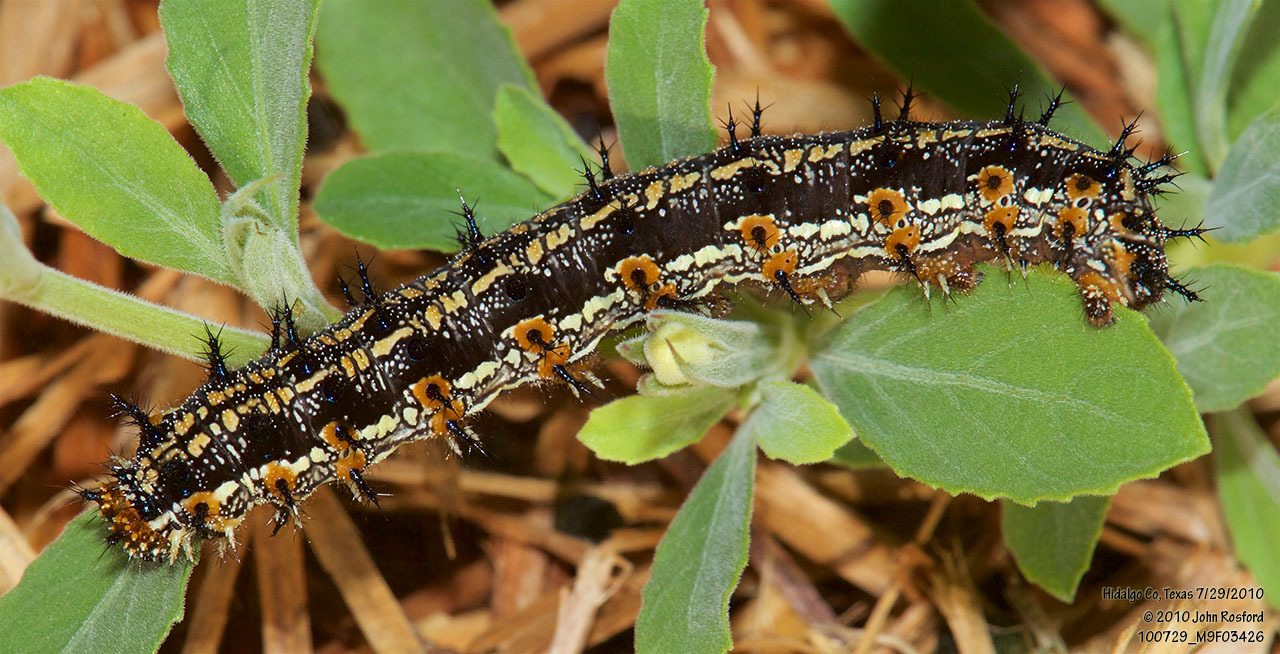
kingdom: Animalia
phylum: Arthropoda
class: Insecta
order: Lepidoptera
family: Nymphalidae
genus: Junonia
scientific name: Junonia coenia
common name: Common buckeye
